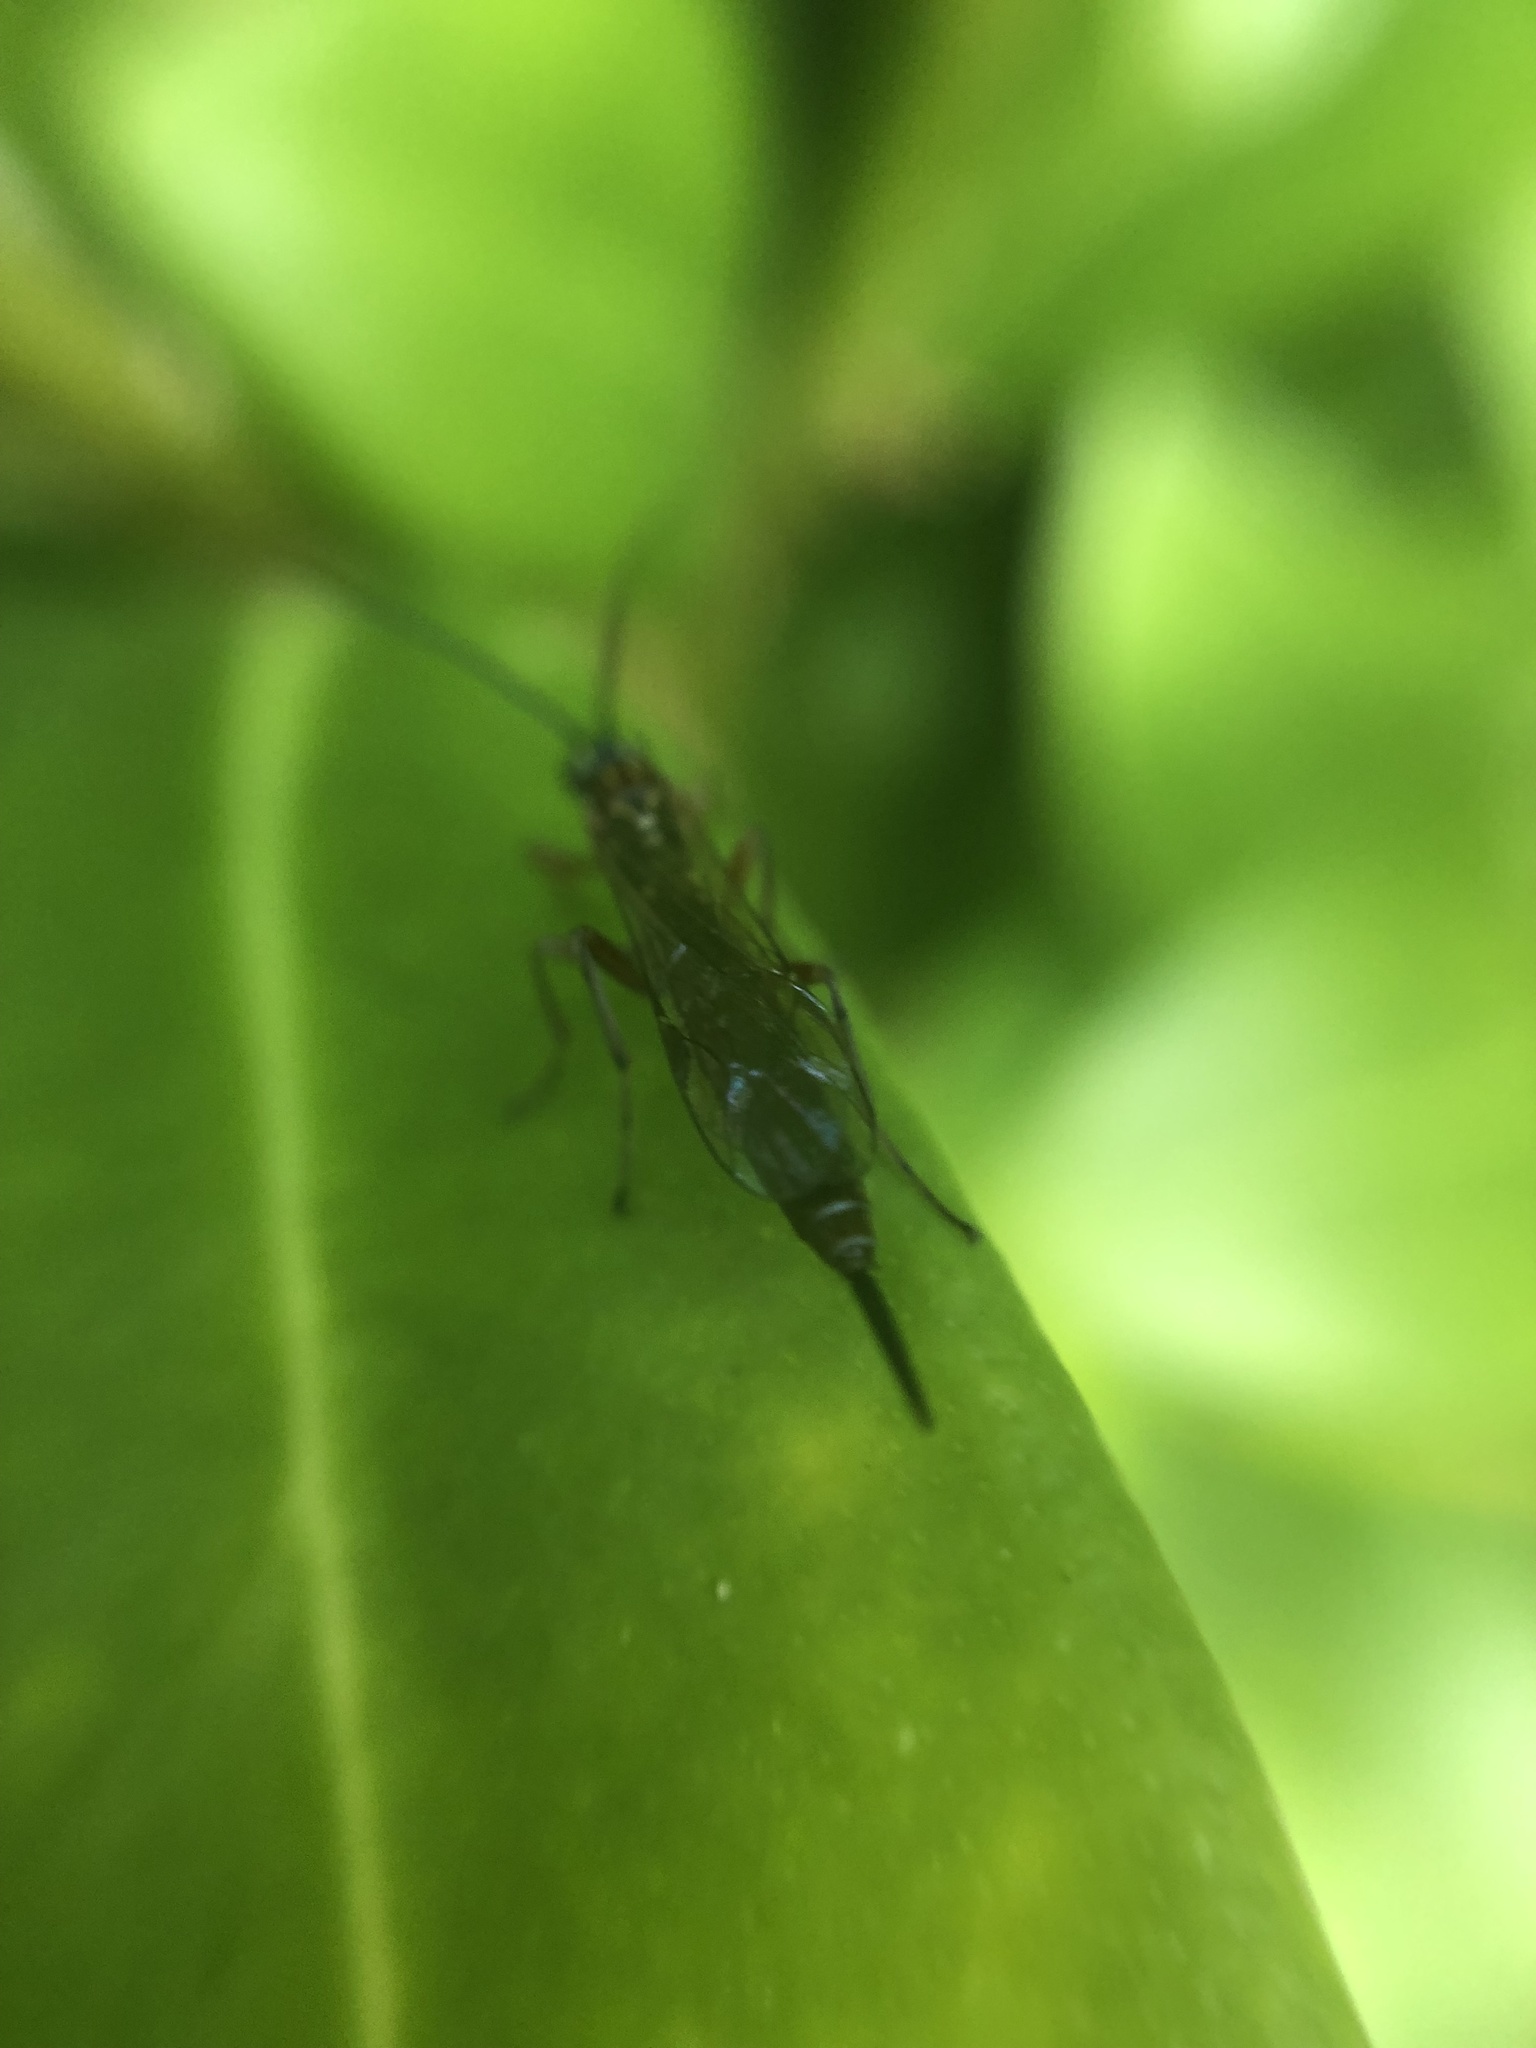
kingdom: Animalia
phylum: Arthropoda
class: Insecta
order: Hymenoptera
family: Ichneumonidae
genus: Tromatobia
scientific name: Tromatobia lineatoria
